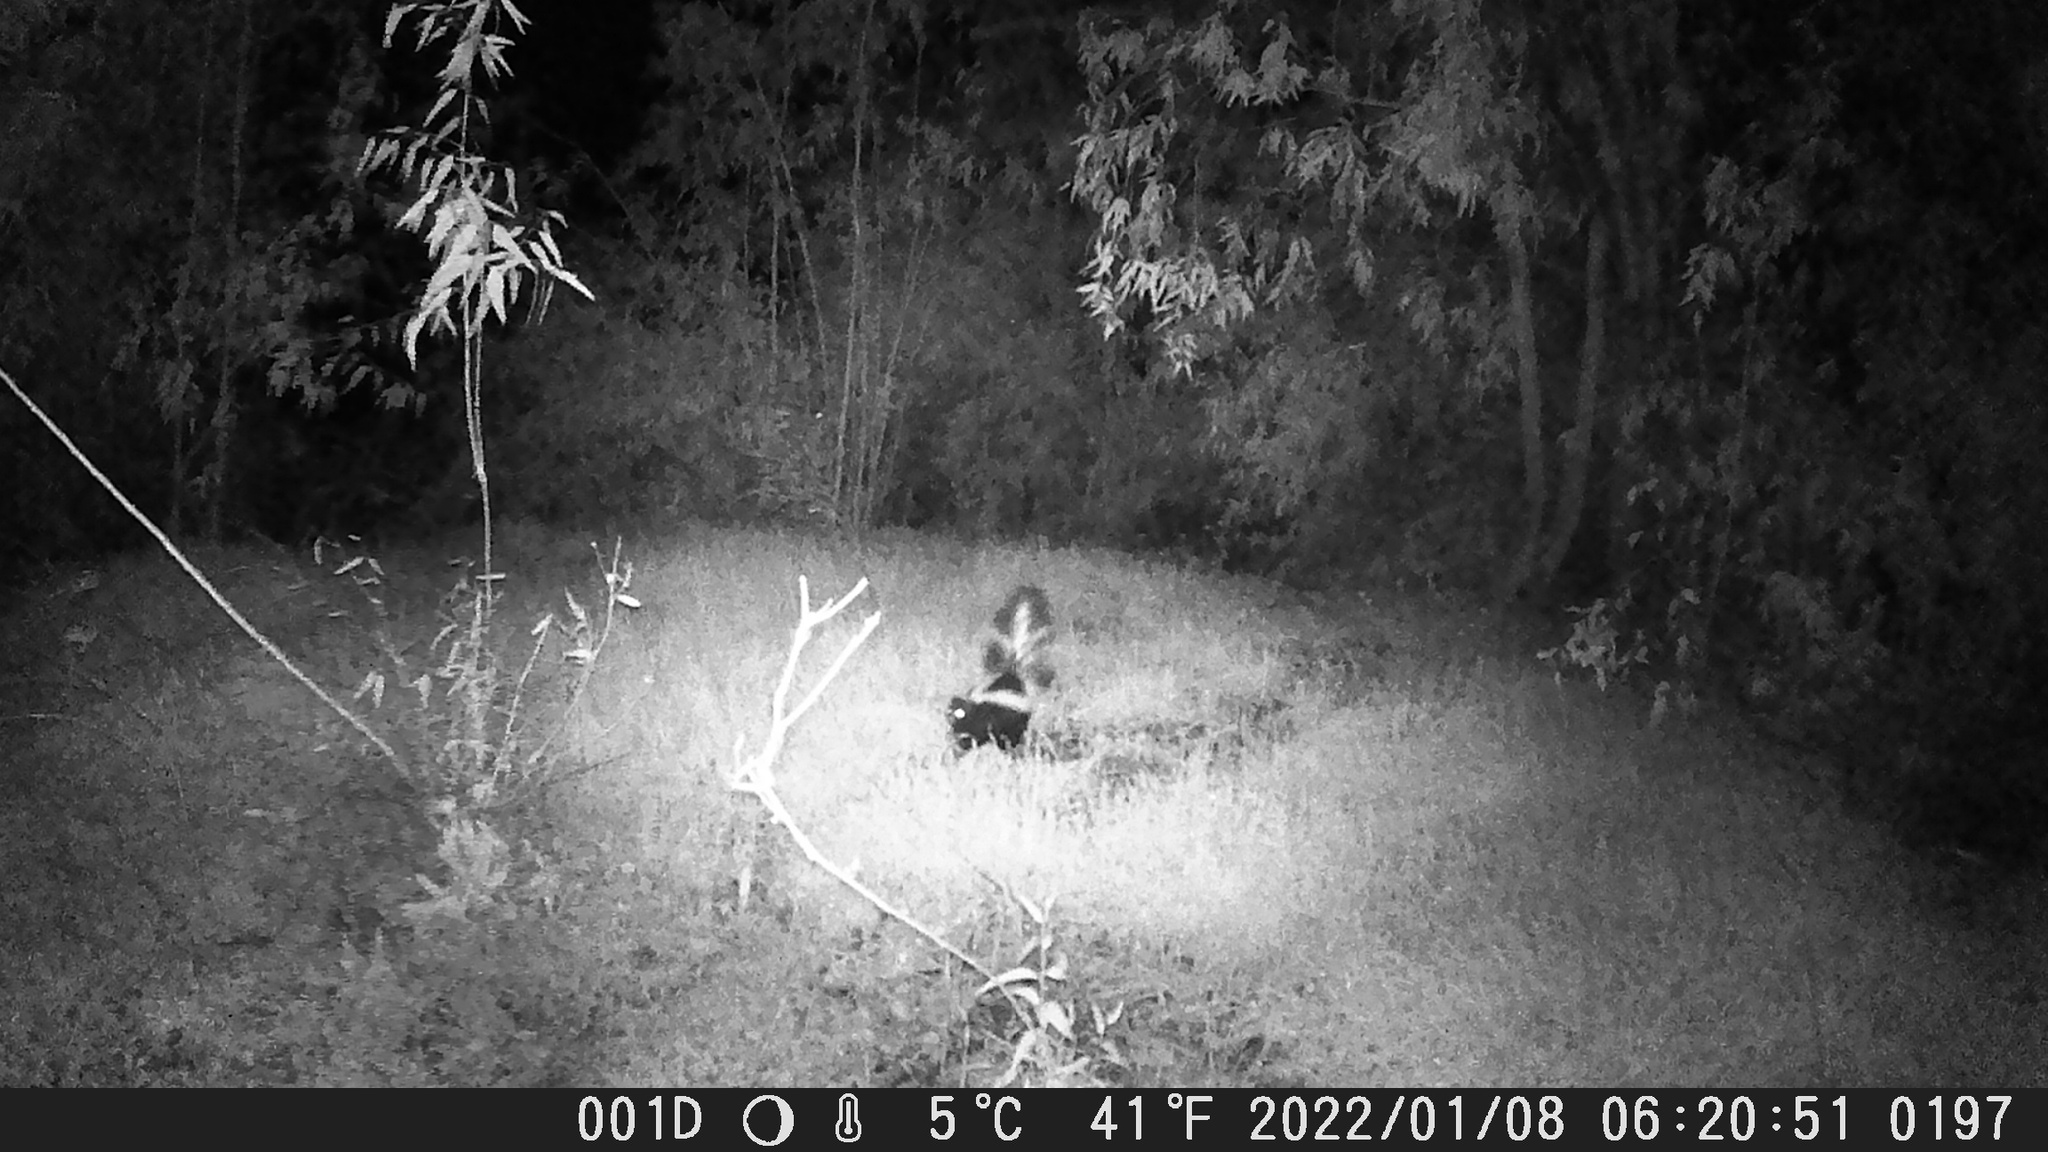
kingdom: Animalia
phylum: Chordata
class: Mammalia
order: Carnivora
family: Mephitidae
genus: Mephitis
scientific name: Mephitis mephitis
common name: Striped skunk
